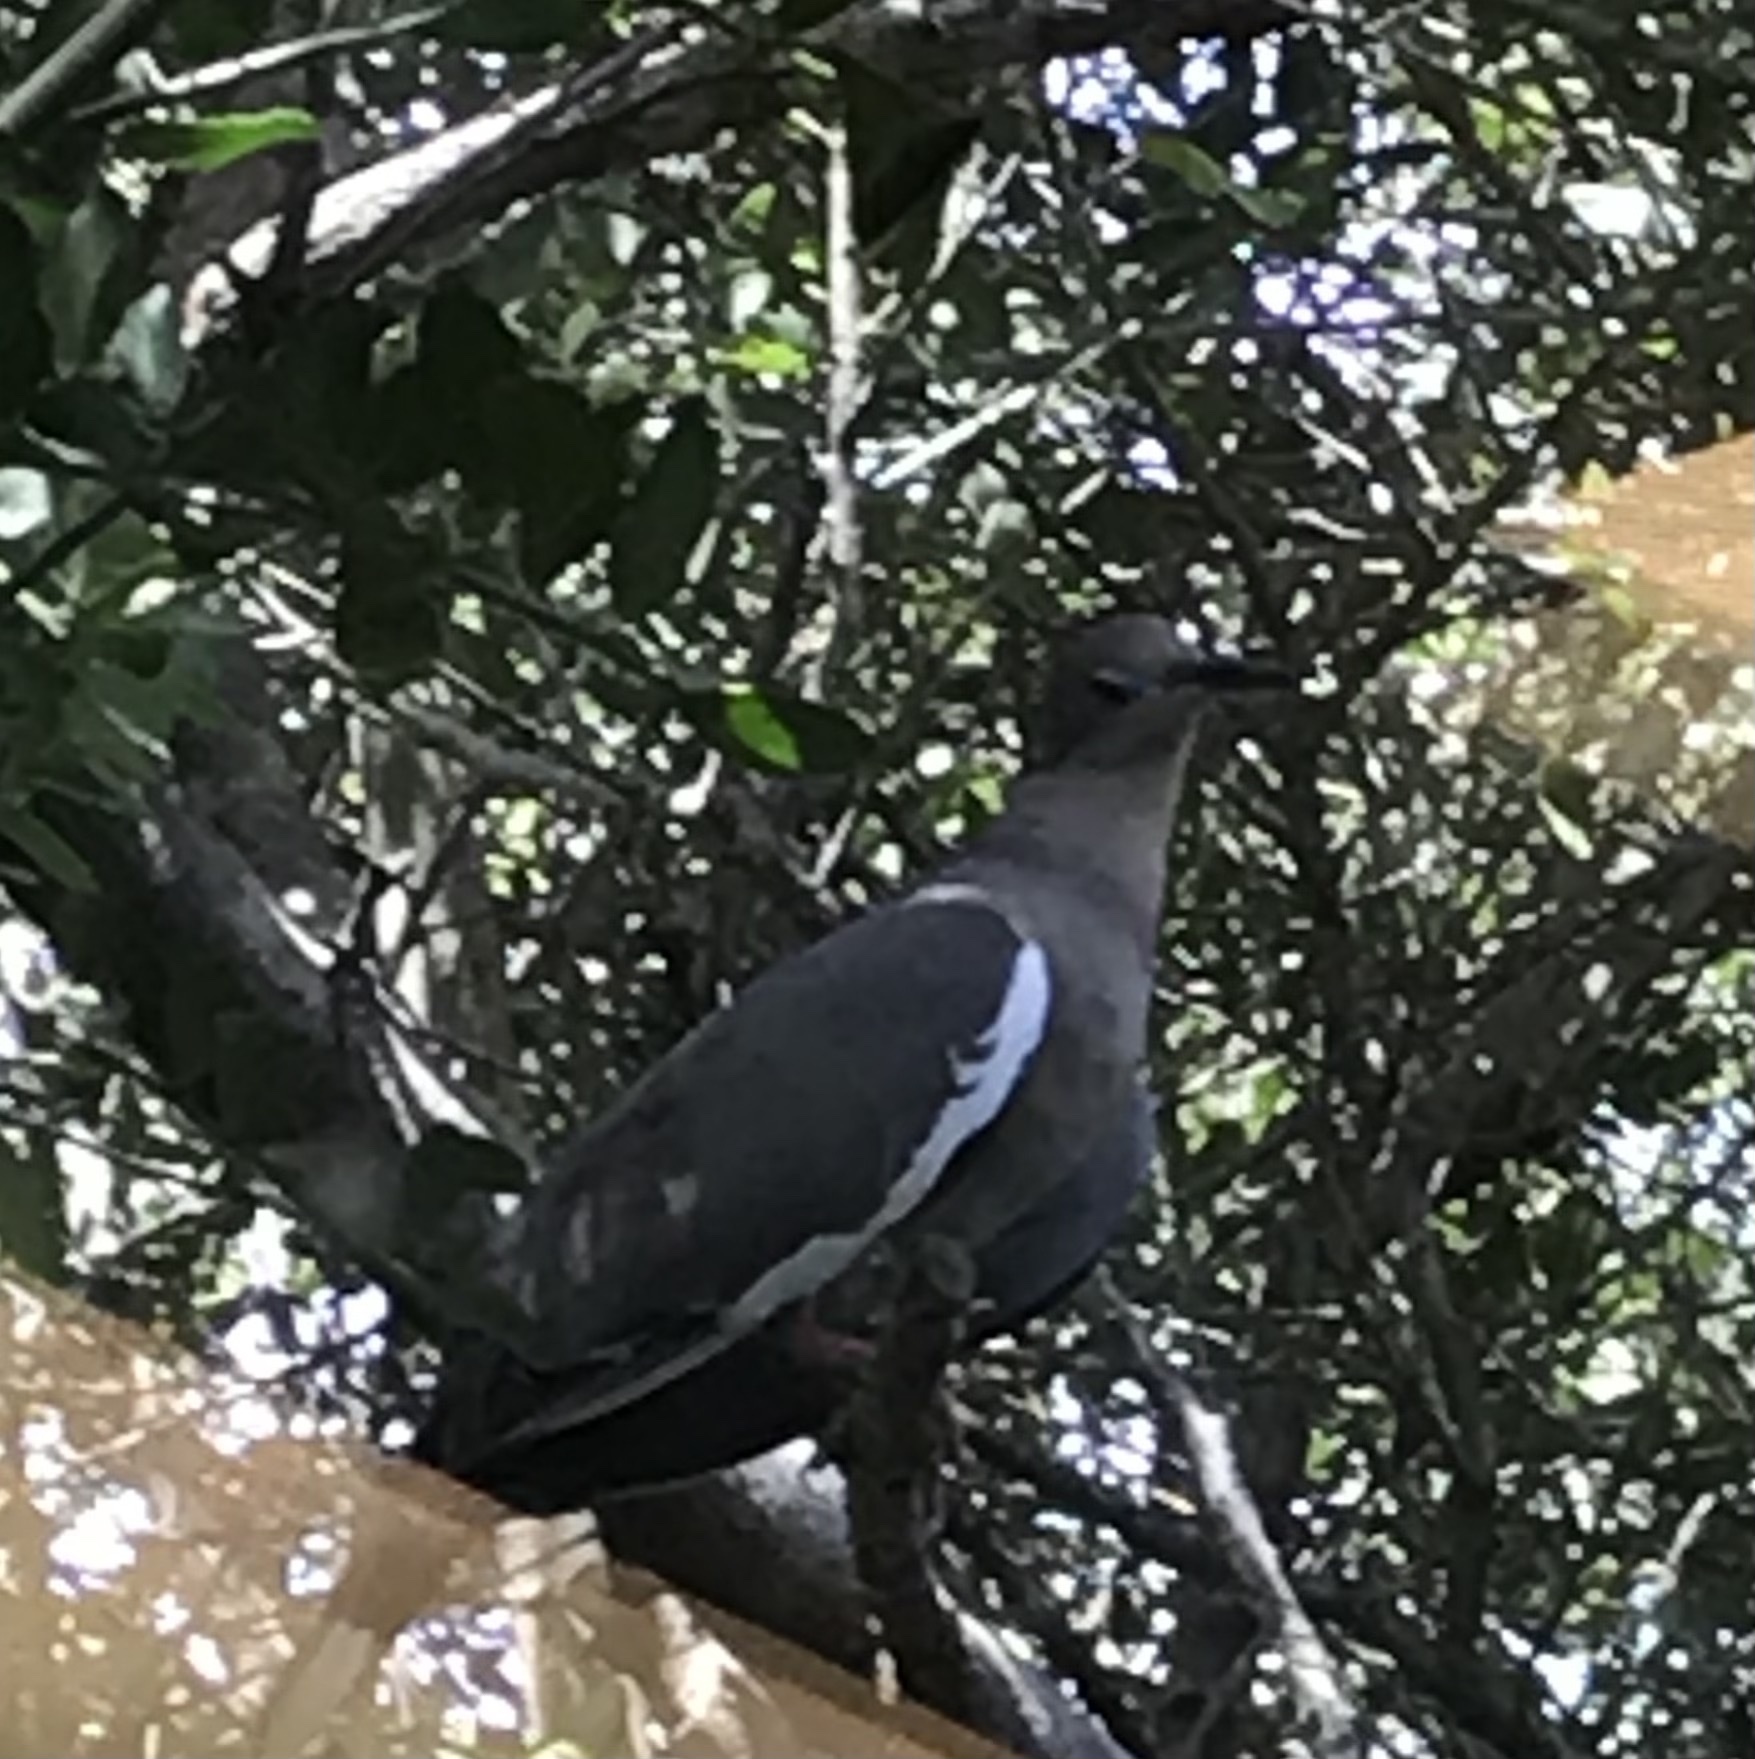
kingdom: Animalia
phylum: Chordata
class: Aves
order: Columbiformes
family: Columbidae
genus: Zenaida
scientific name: Zenaida asiatica
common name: White-winged dove
